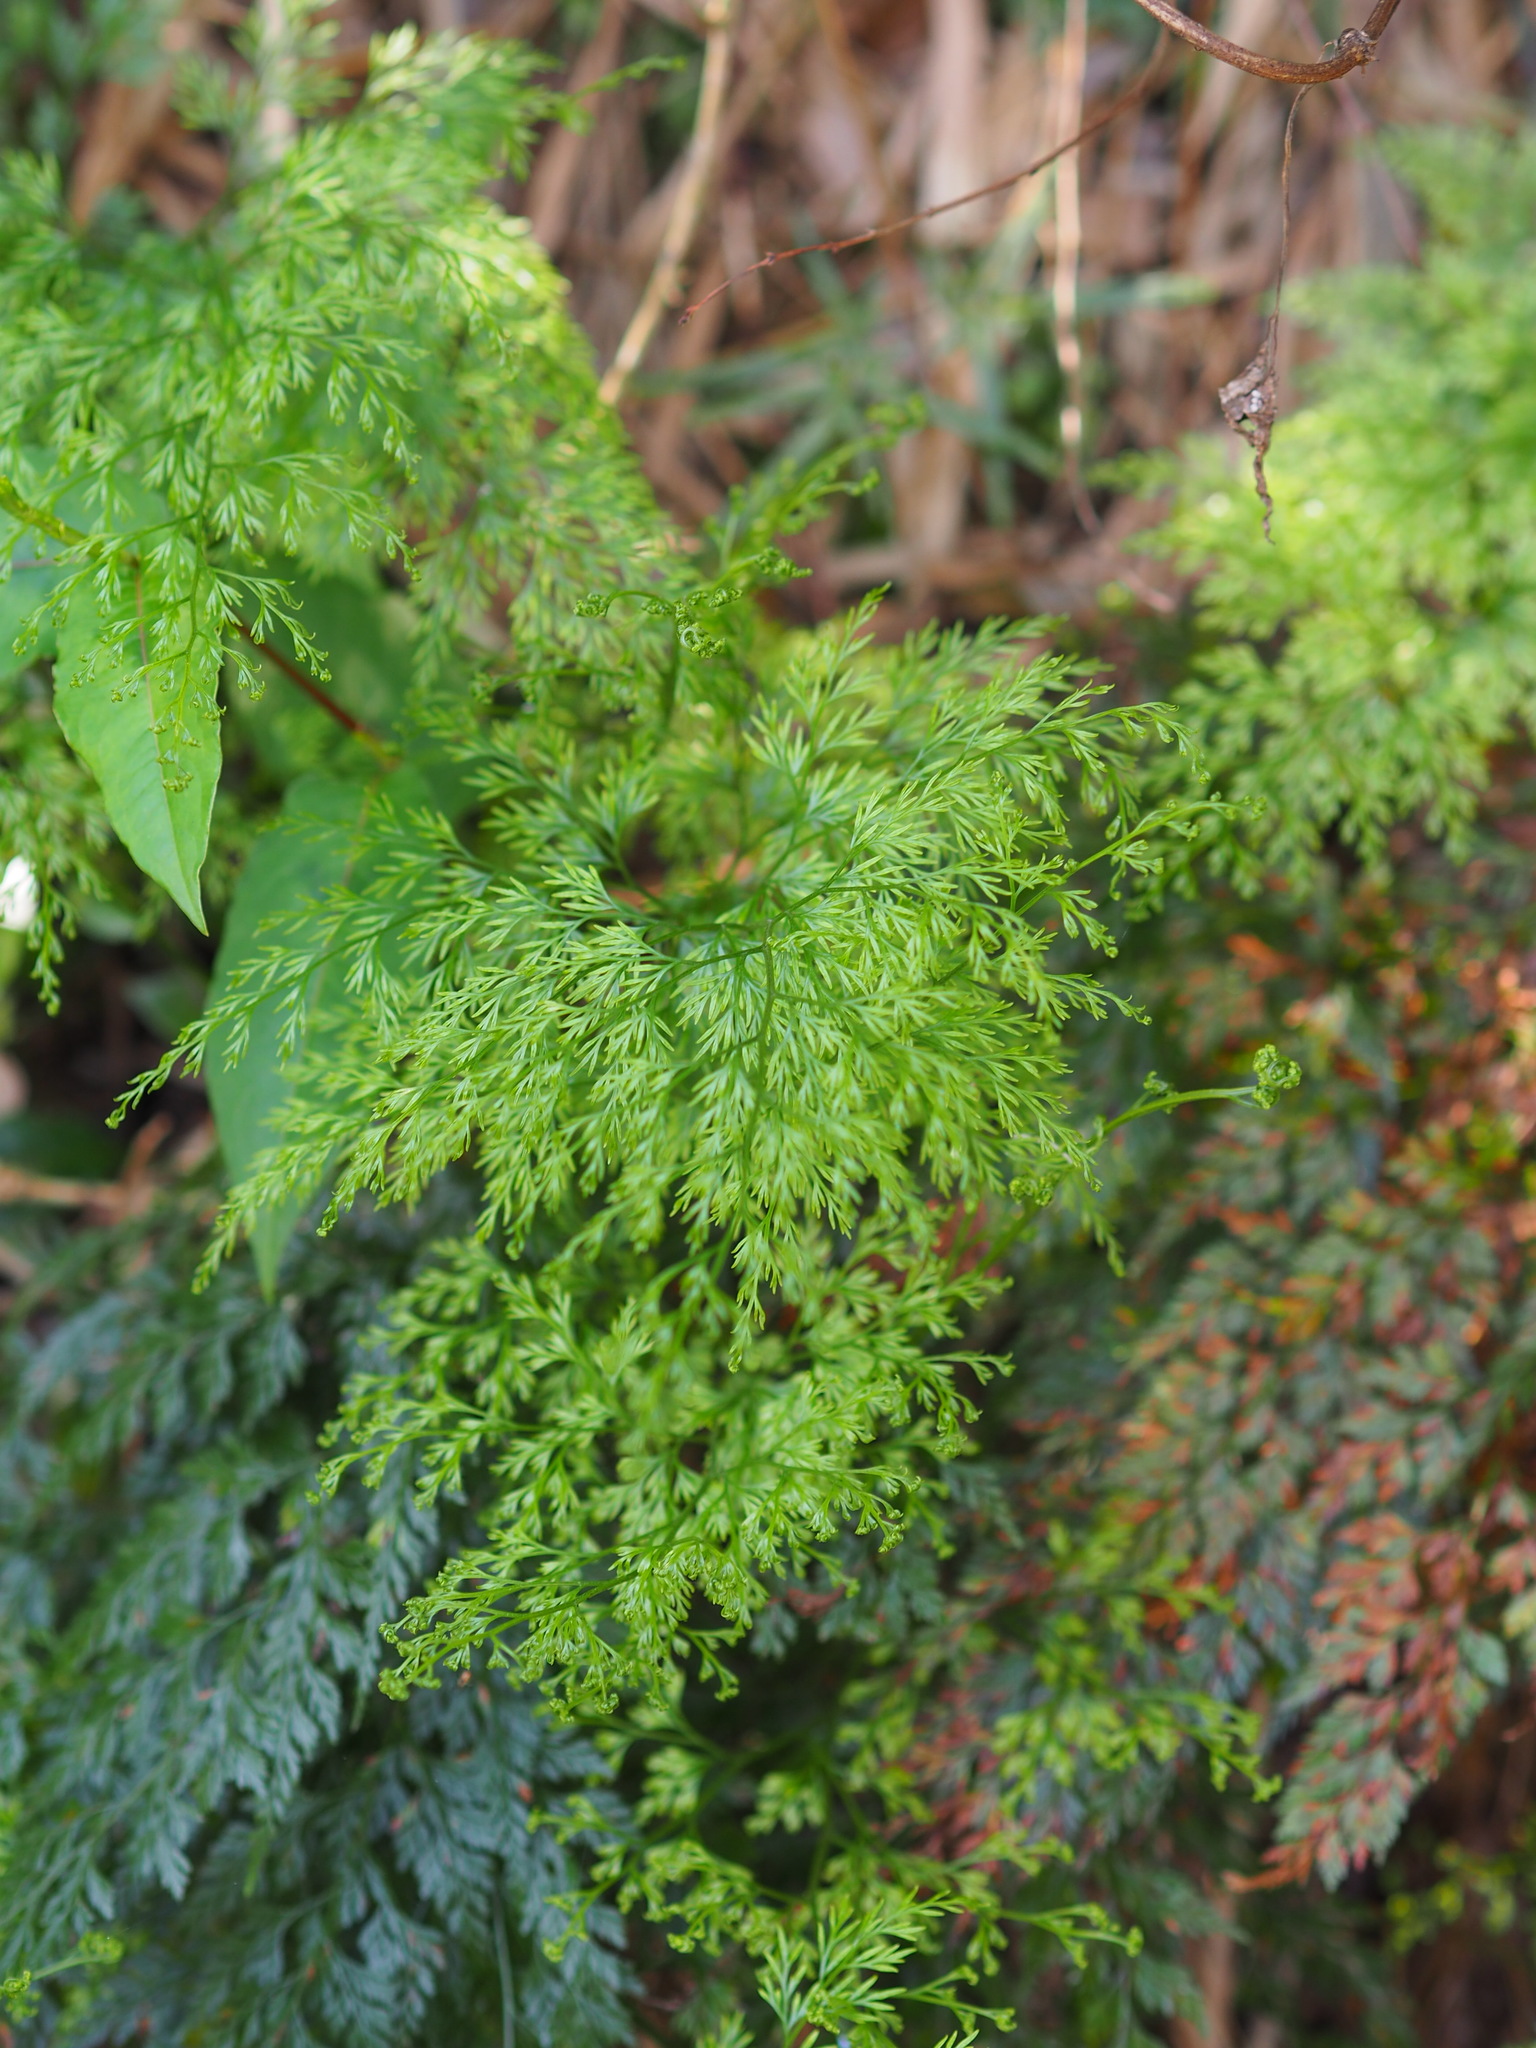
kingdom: Plantae
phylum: Tracheophyta
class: Polypodiopsida
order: Polypodiales
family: Pteridaceae
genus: Onychium
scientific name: Onychium japonicum
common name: Carrot fern
